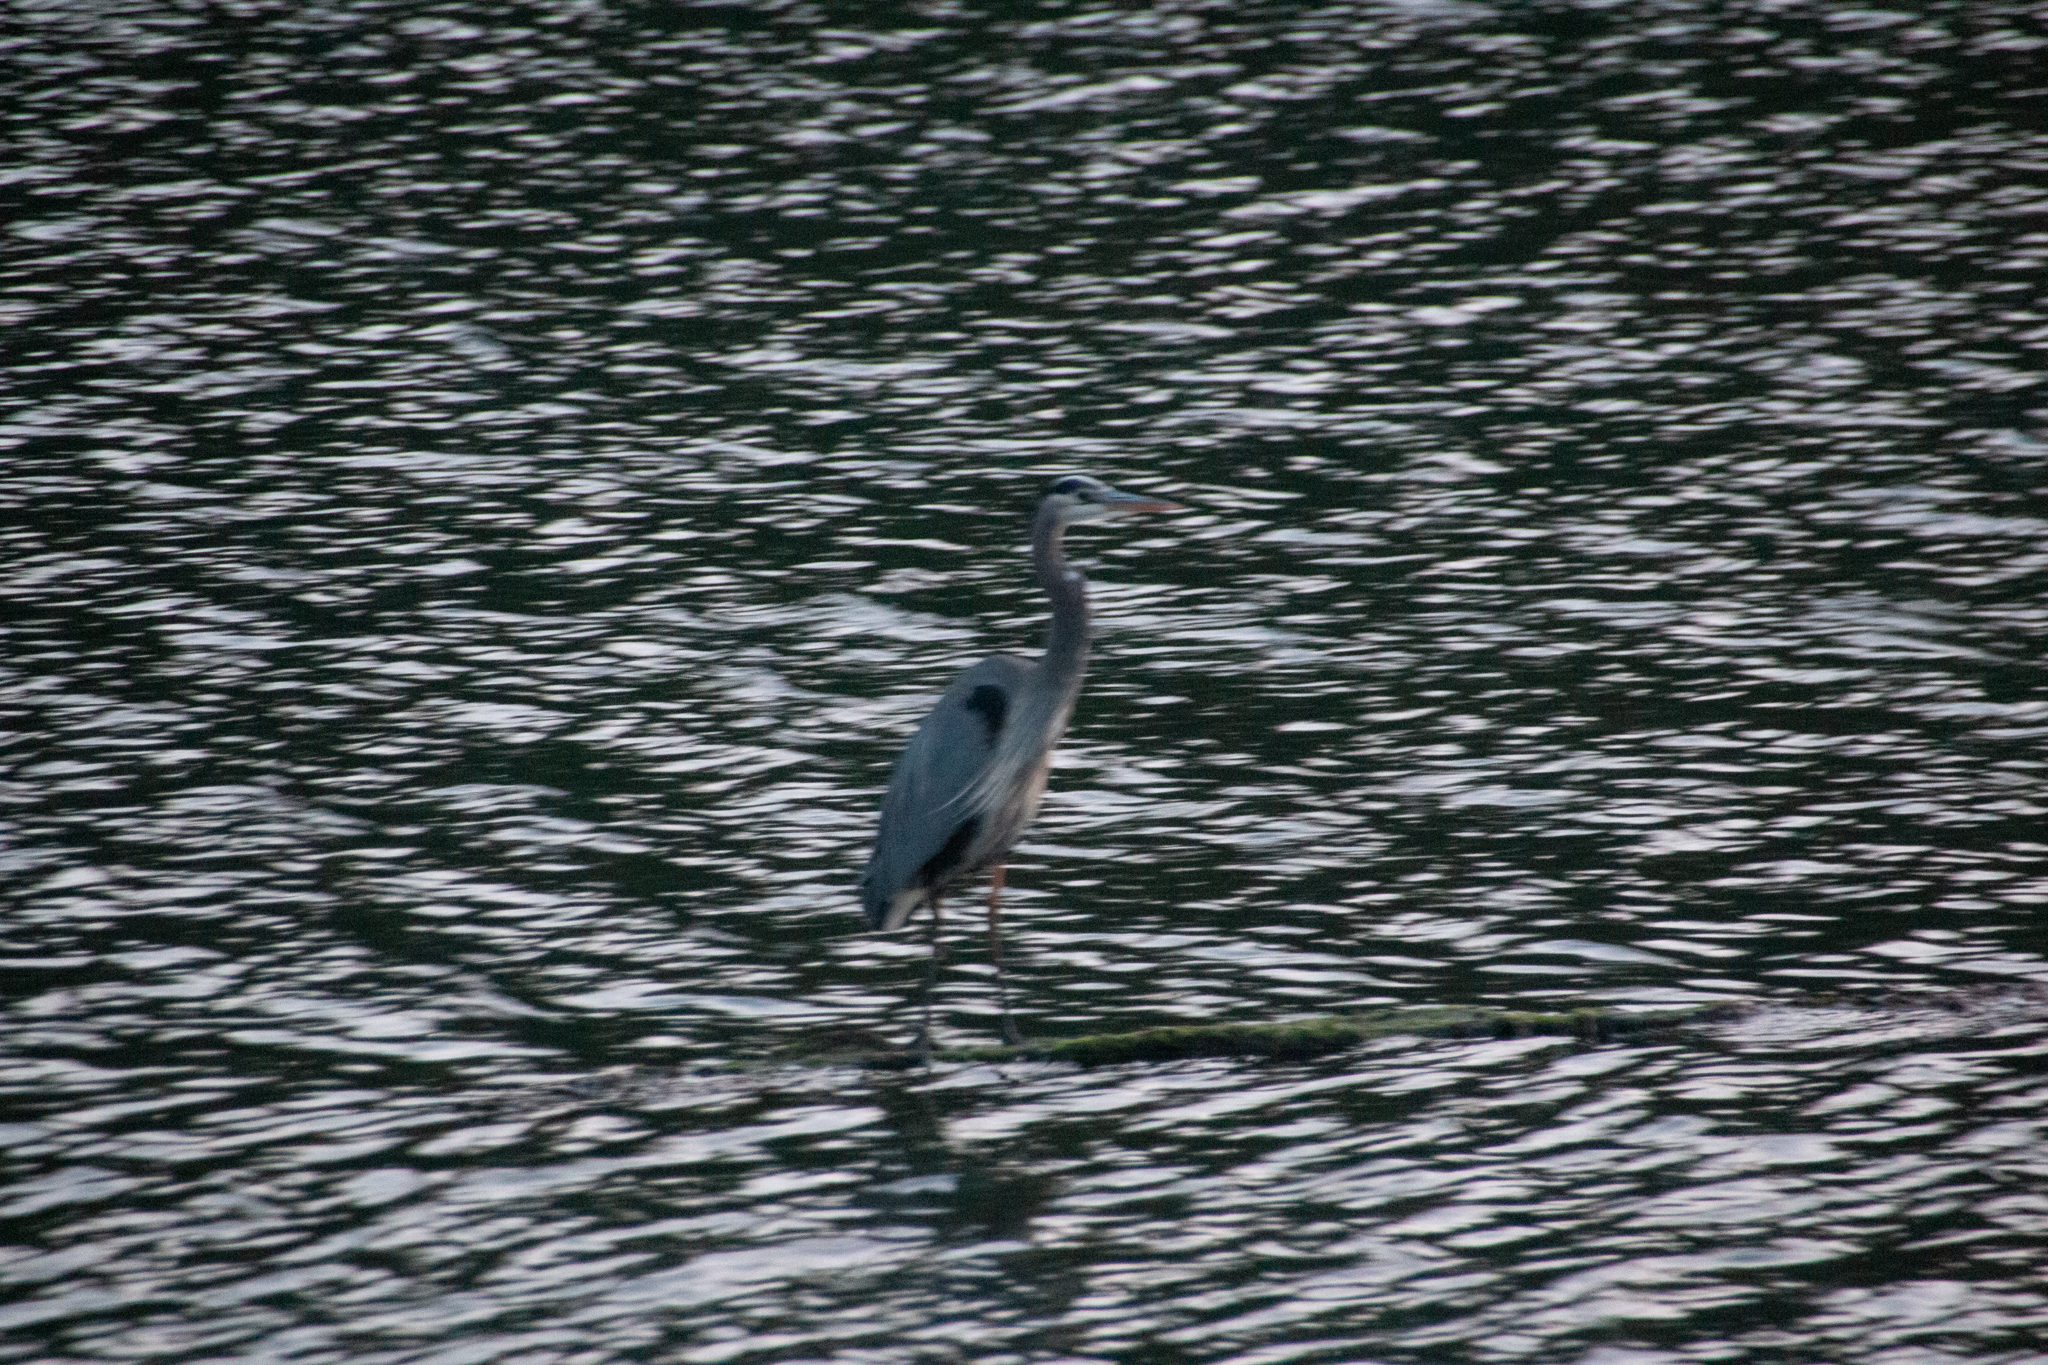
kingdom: Animalia
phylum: Chordata
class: Aves
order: Pelecaniformes
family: Ardeidae
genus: Ardea
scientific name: Ardea herodias
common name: Great blue heron
